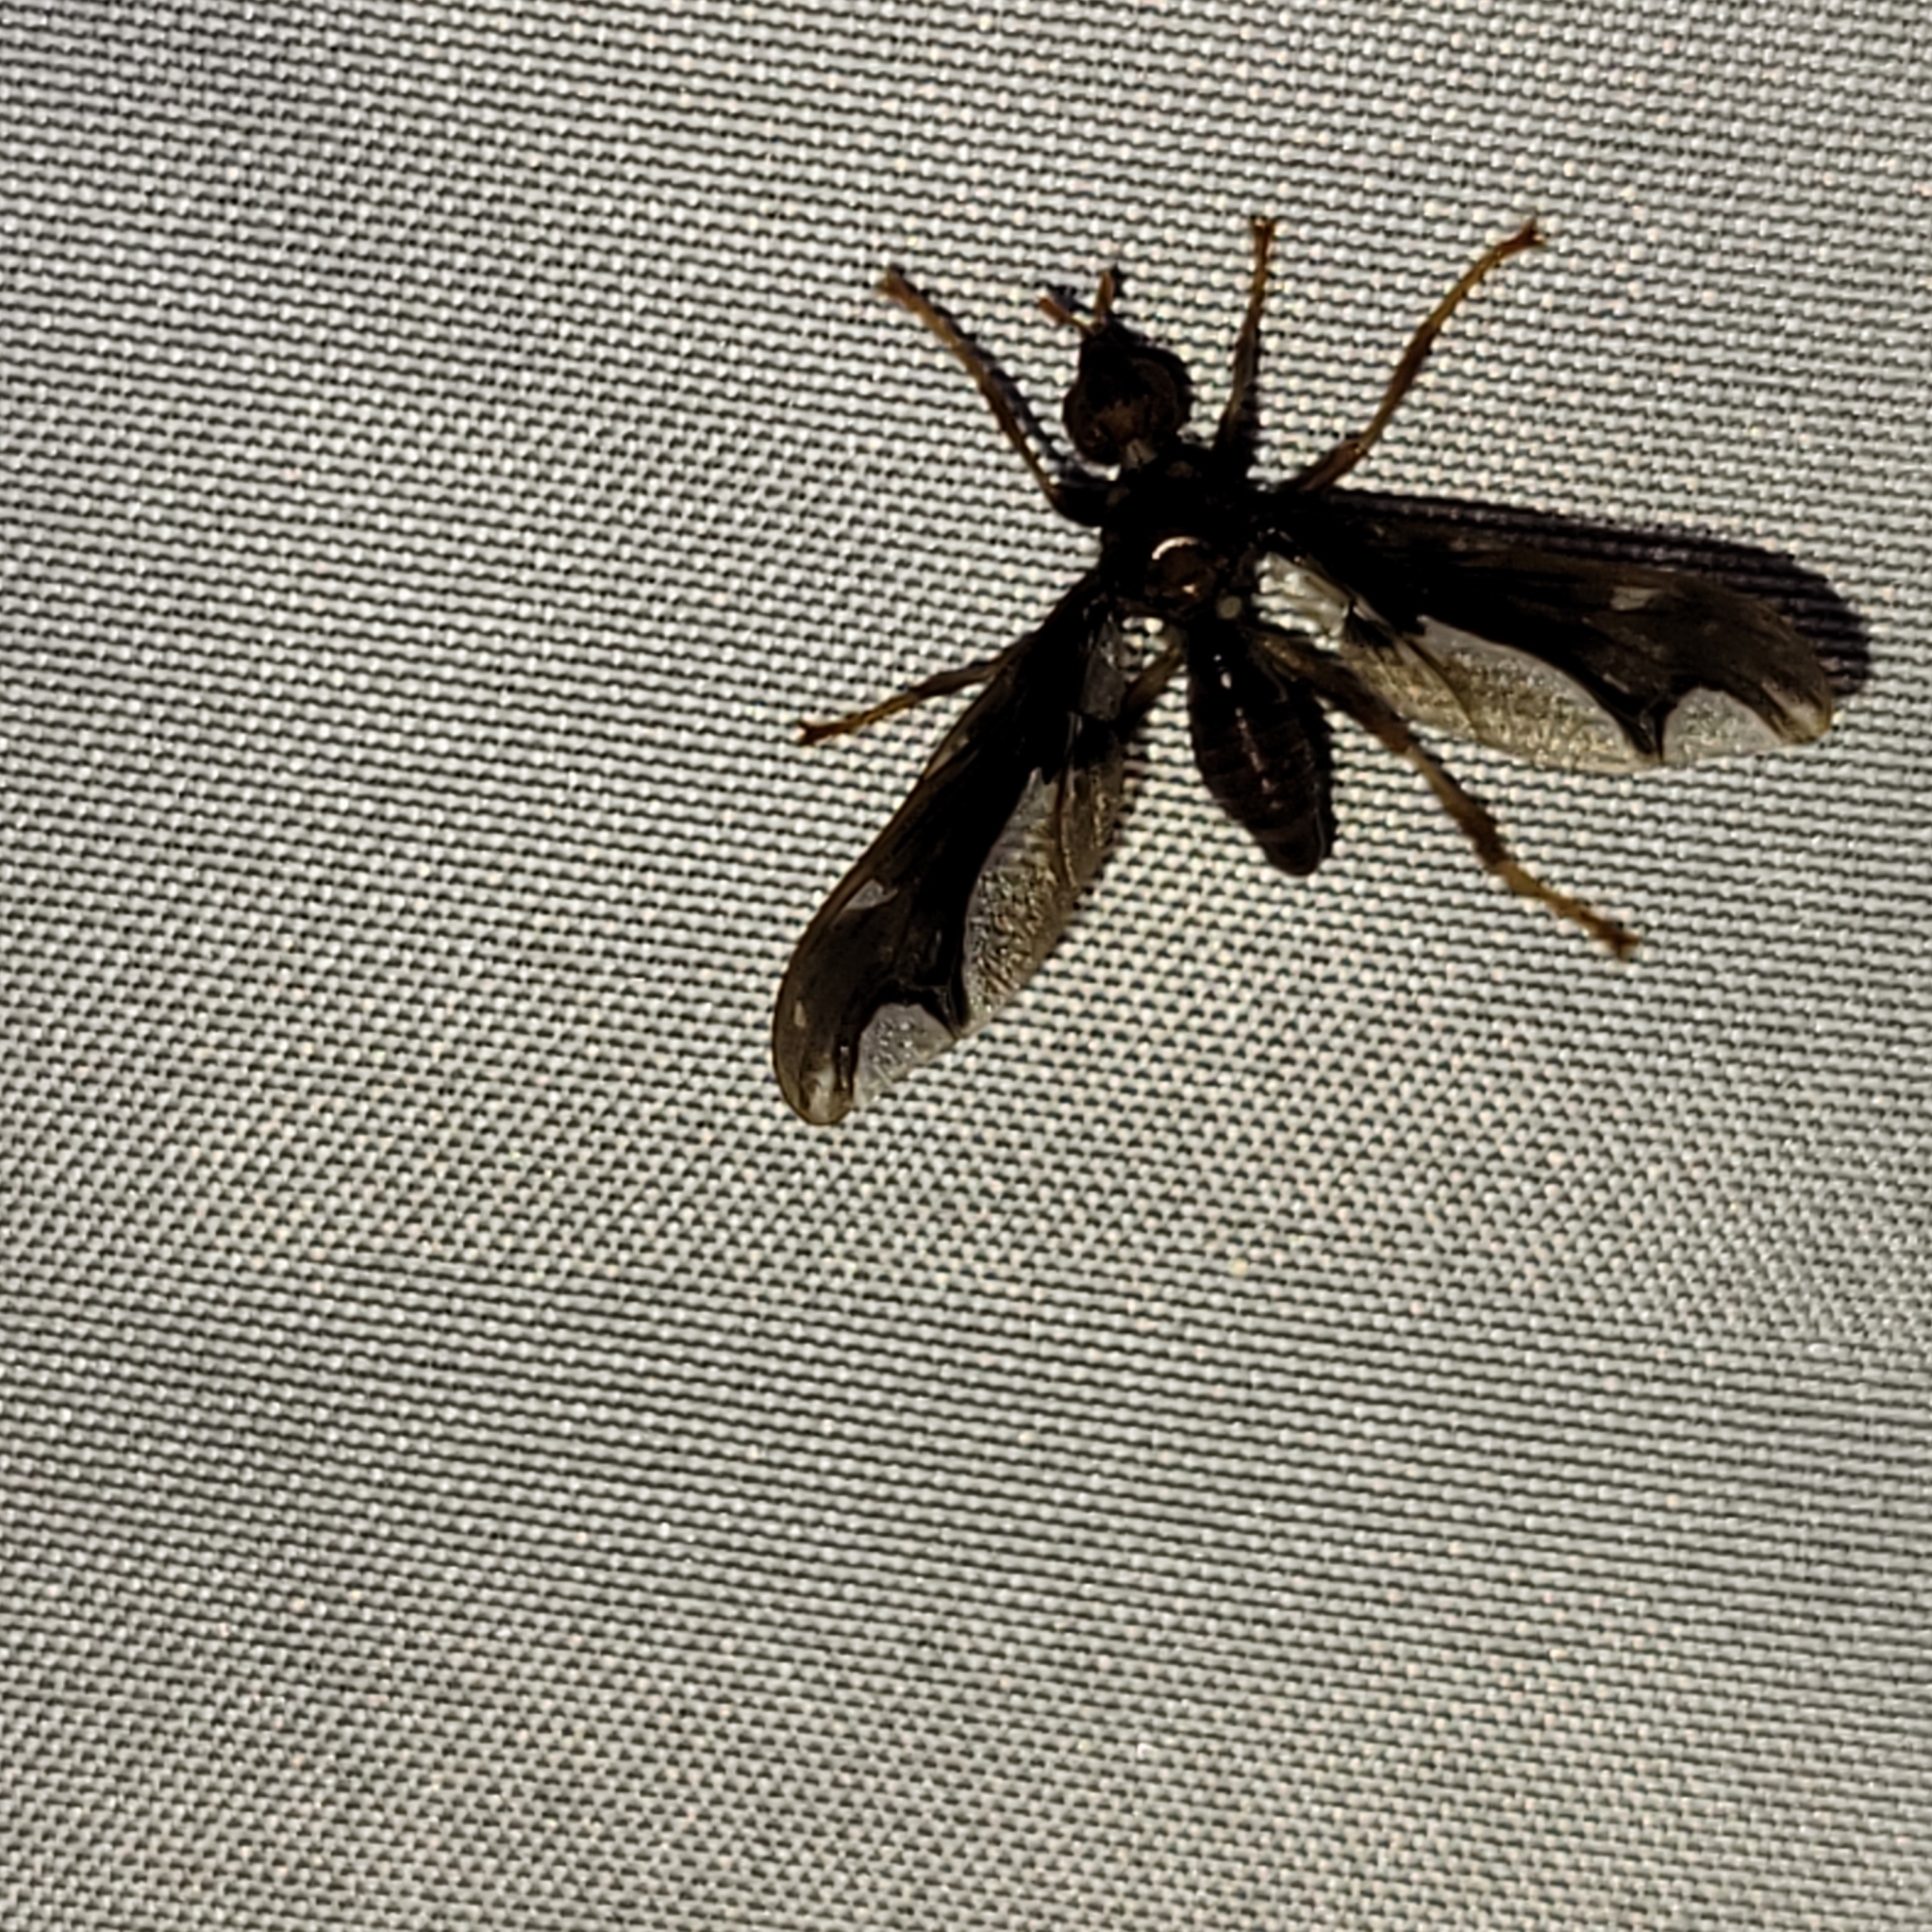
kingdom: Animalia
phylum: Arthropoda
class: Insecta
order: Diptera
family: Pyrgotidae
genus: Pyrgota
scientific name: Pyrgota undata
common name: Waved light fly
